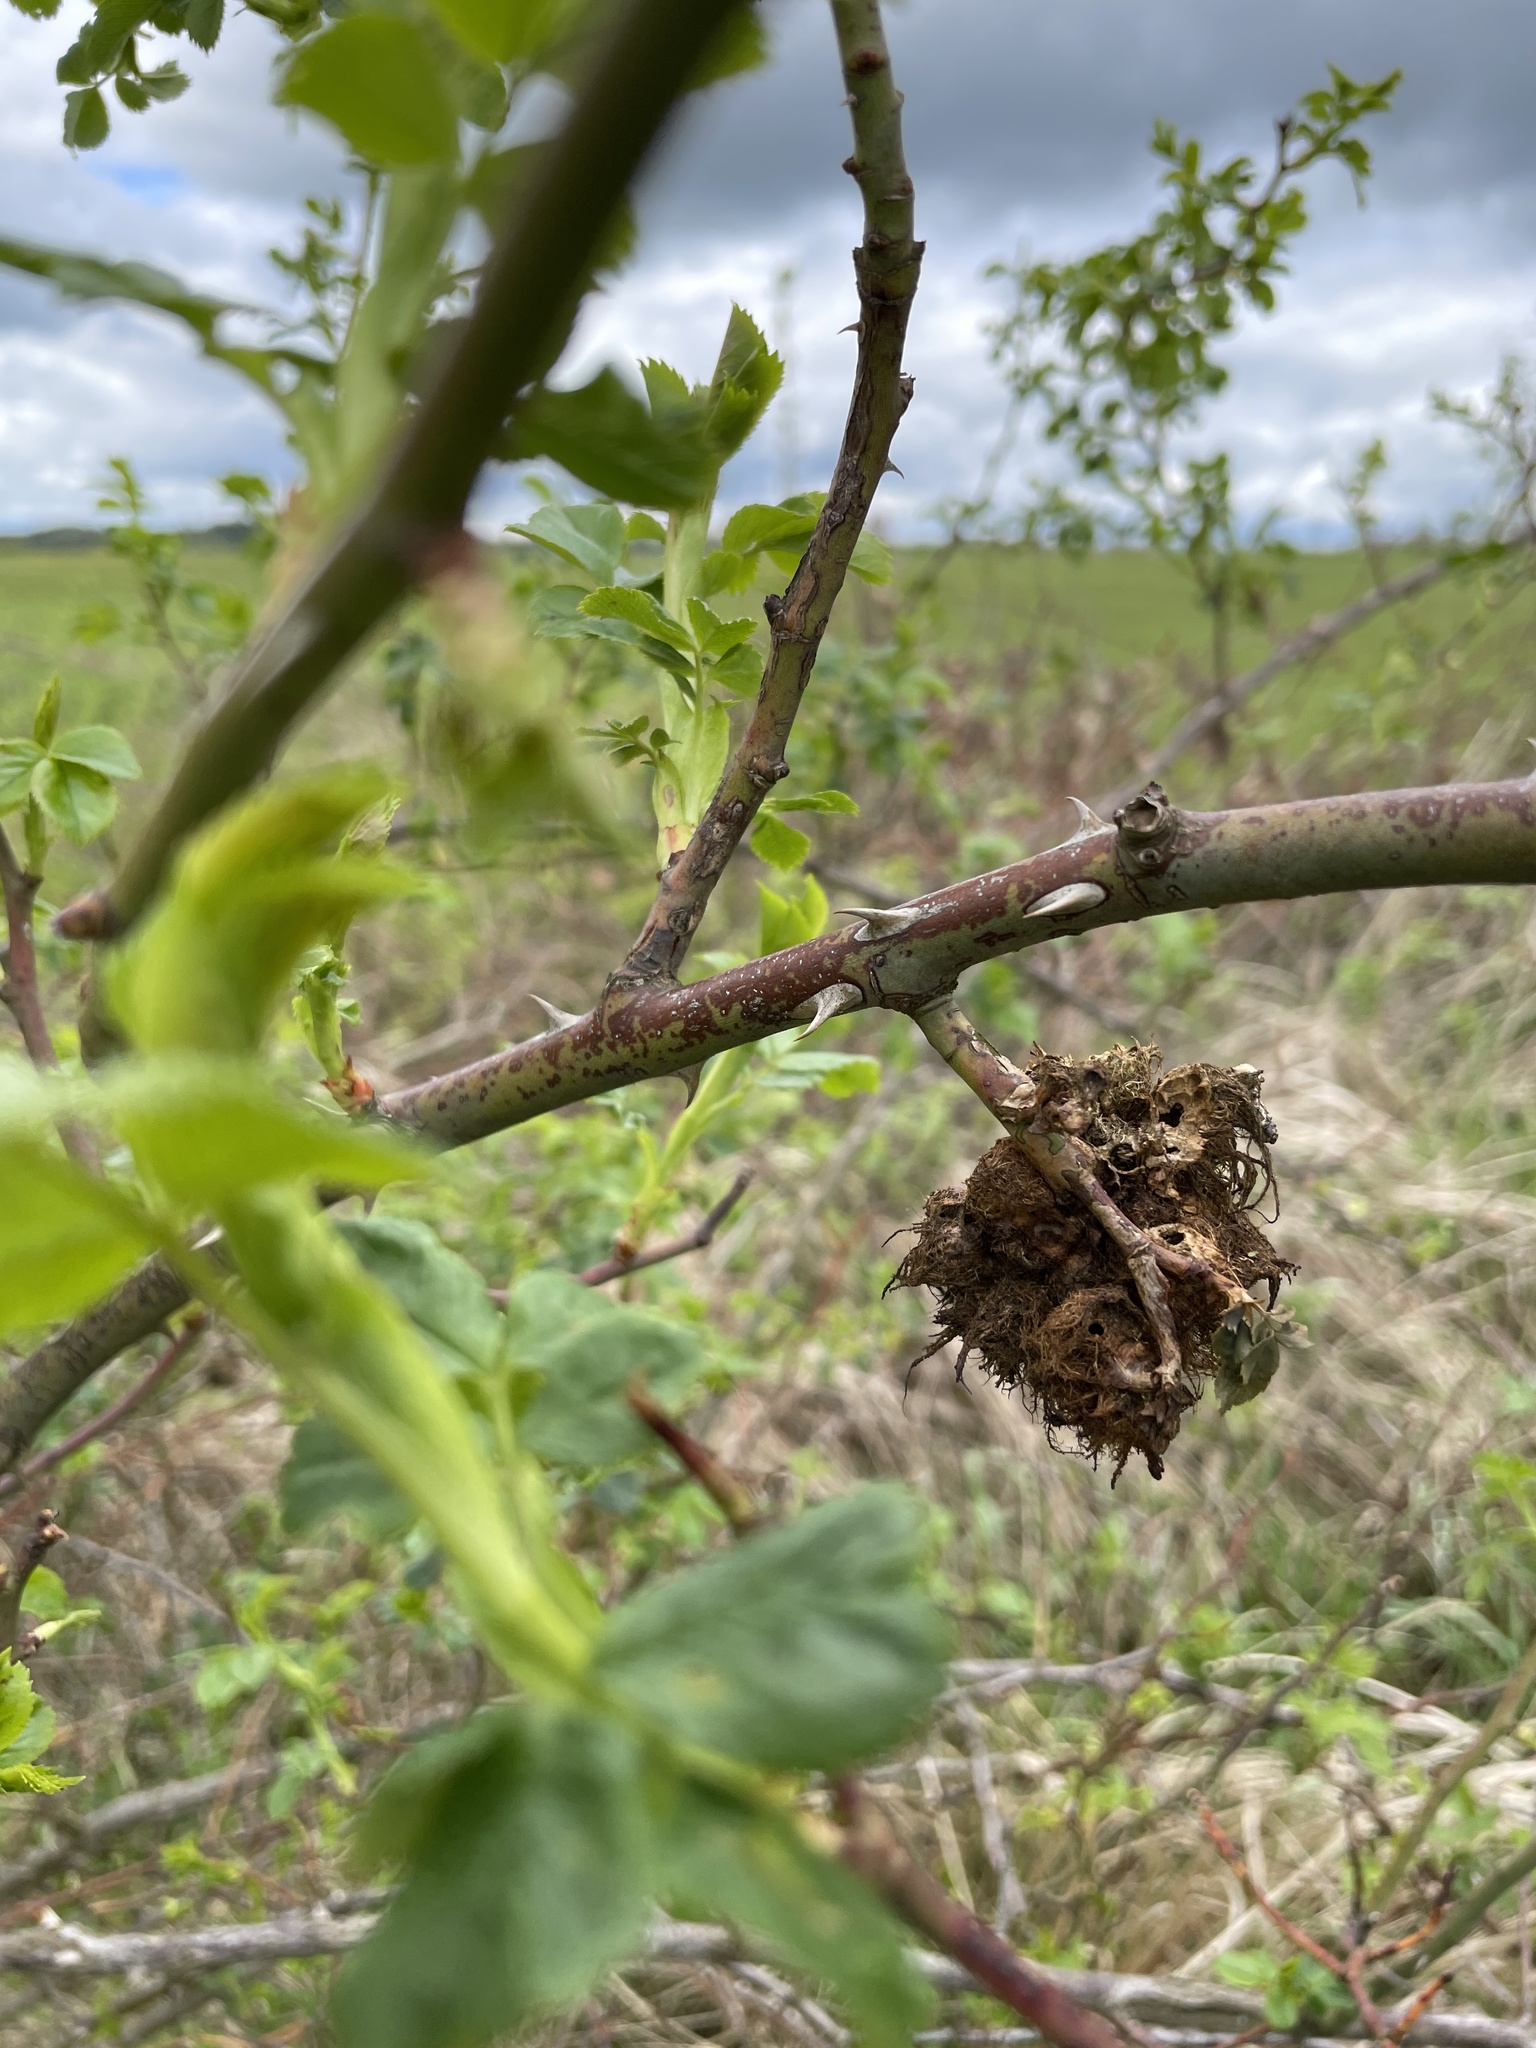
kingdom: Animalia
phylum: Arthropoda
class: Insecta
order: Hymenoptera
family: Cynipidae
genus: Diplolepis
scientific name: Diplolepis rosae
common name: Bedeguar gall
